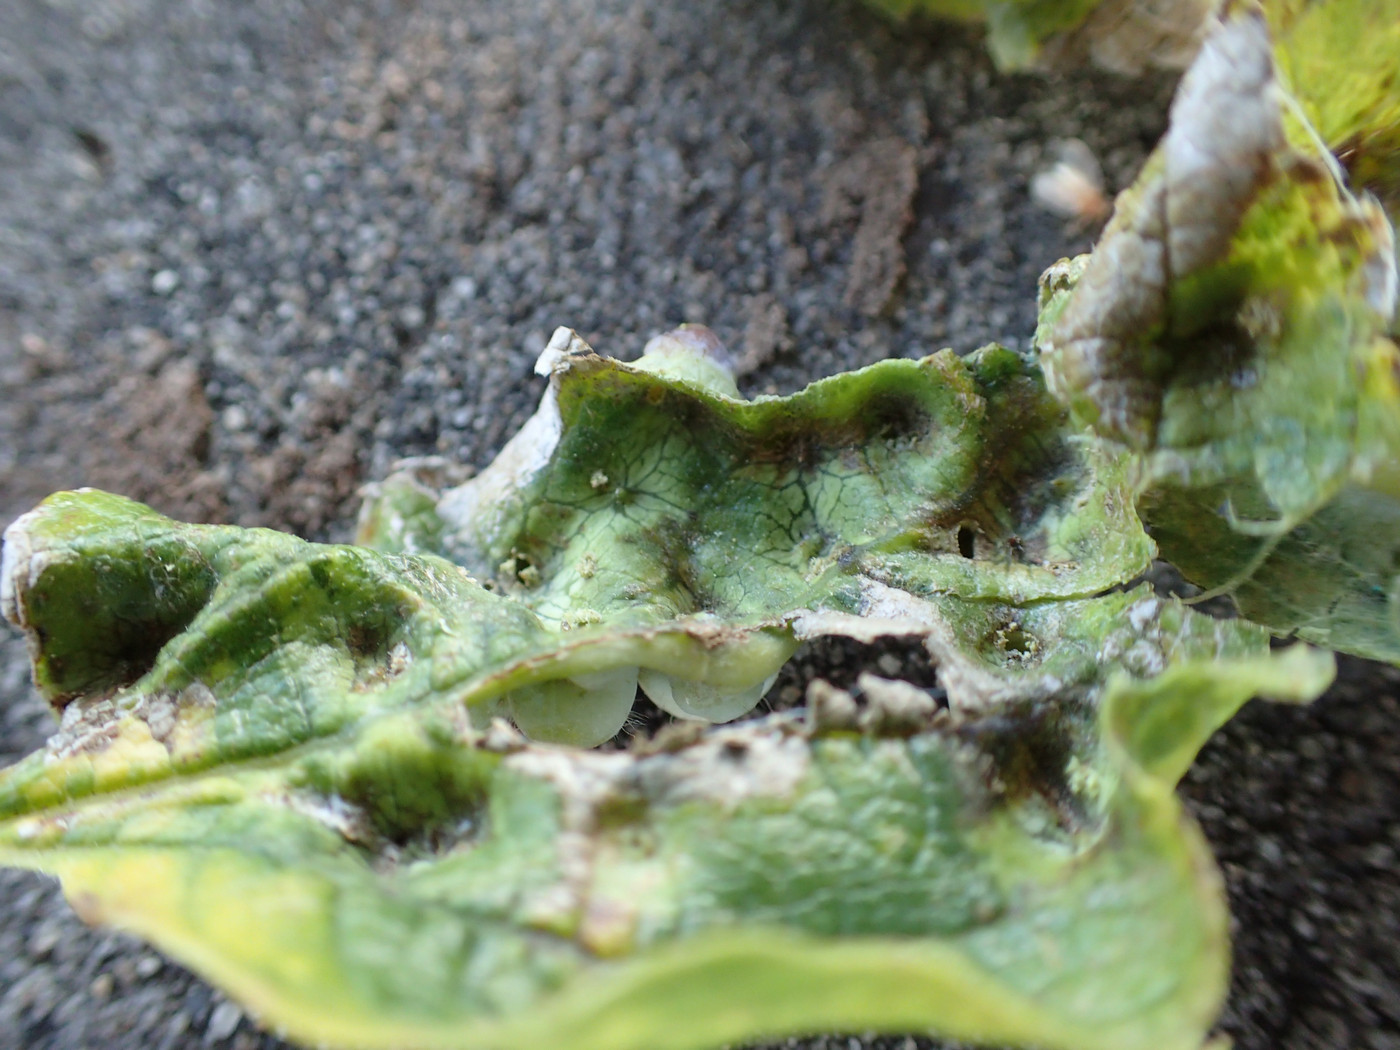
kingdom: Animalia
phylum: Arthropoda
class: Insecta
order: Hemiptera
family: Aphalaridae
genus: Pachypsylla
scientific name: Pachypsylla celtidismamma
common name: Hackberry nipplegall psyllid
